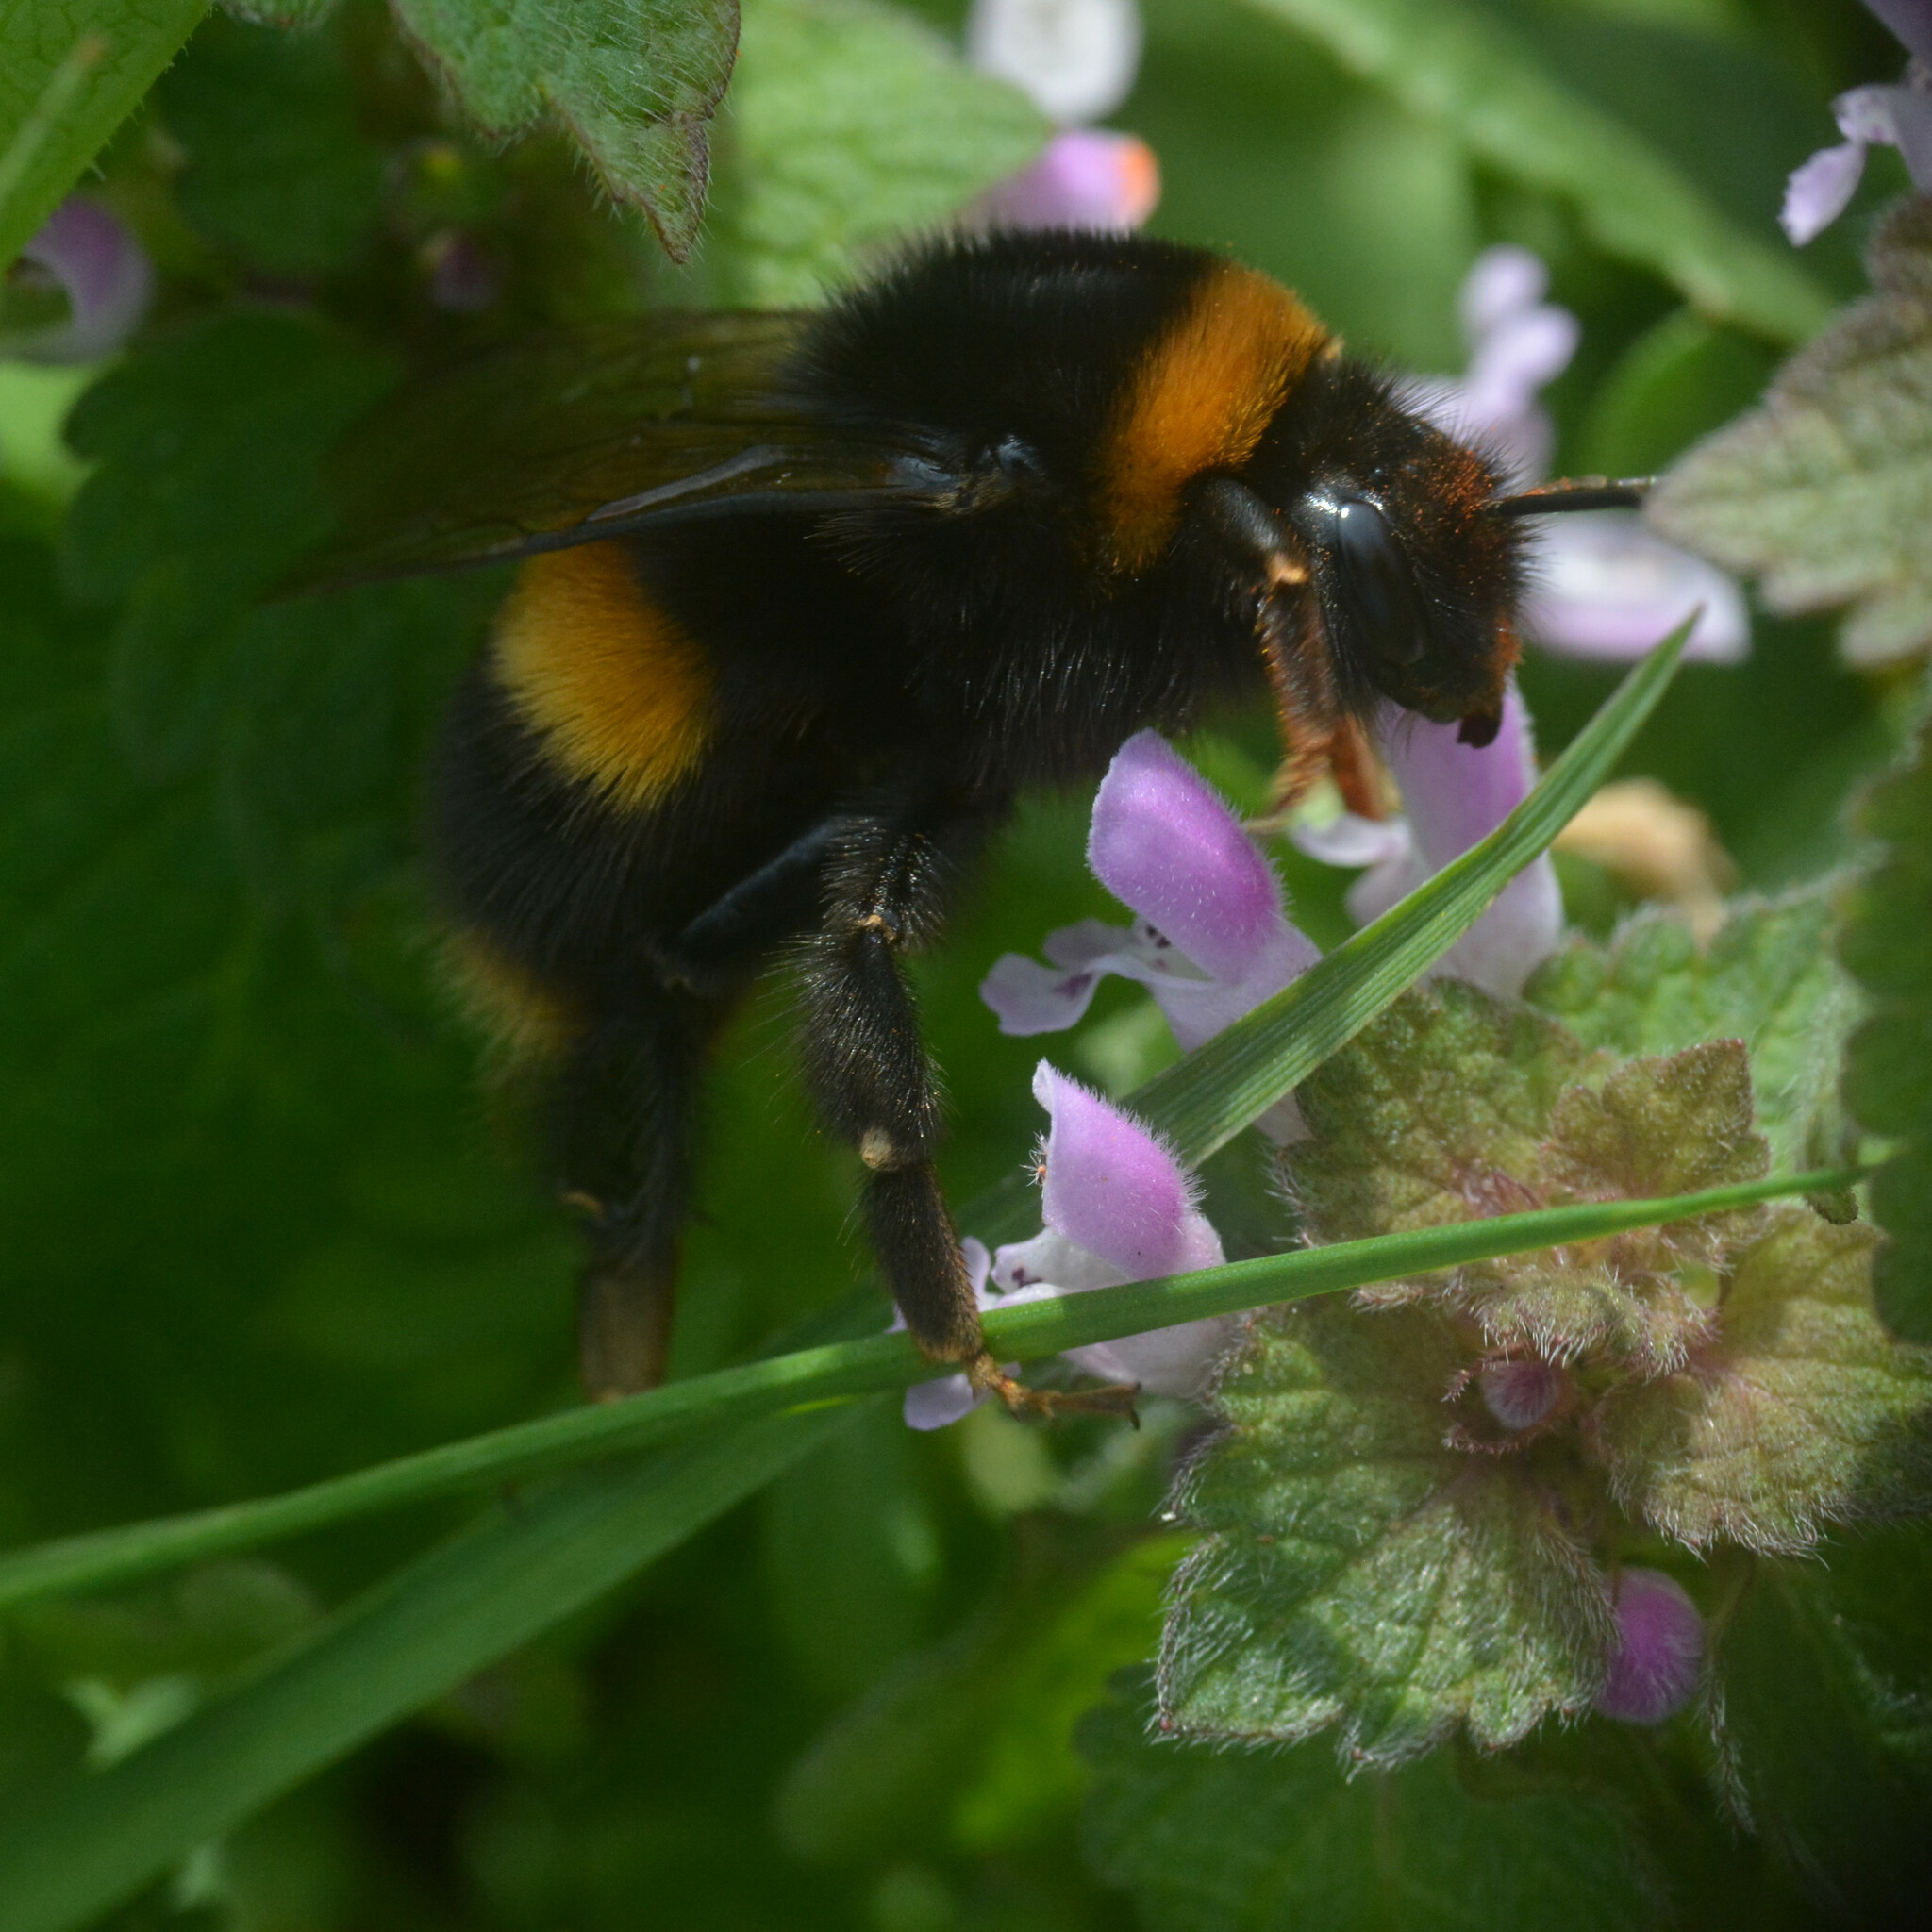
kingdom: Animalia
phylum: Arthropoda
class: Insecta
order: Hymenoptera
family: Apidae
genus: Bombus
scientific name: Bombus terrestris
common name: Buff-tailed bumblebee
